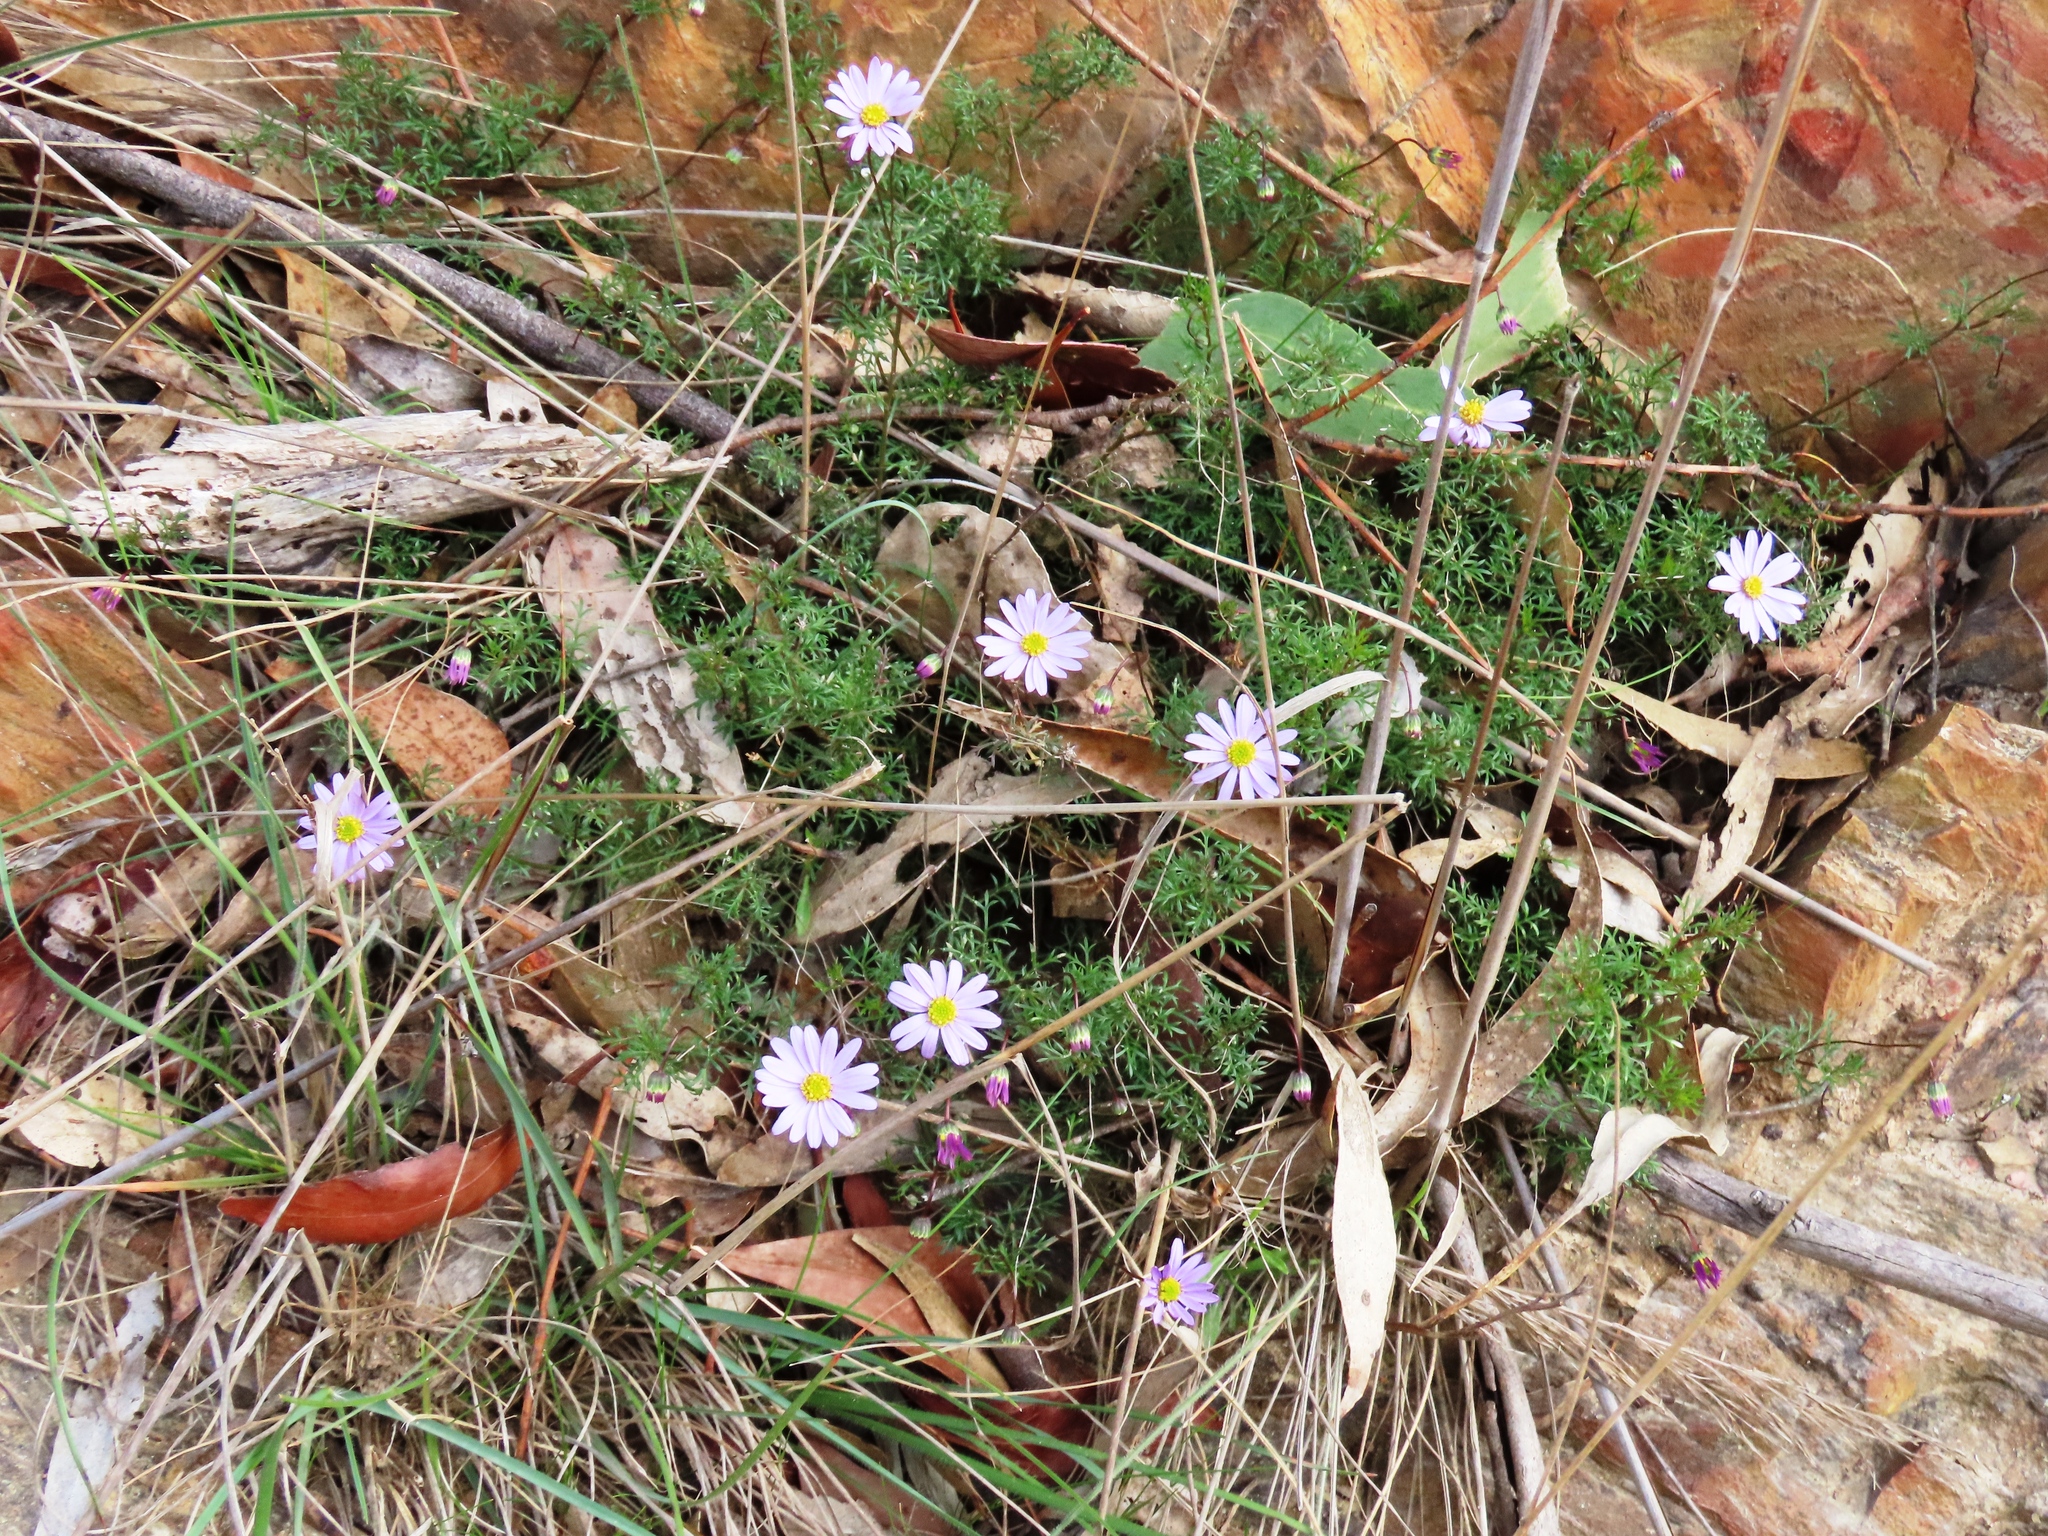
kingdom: Plantae
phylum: Tracheophyta
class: Magnoliopsida
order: Asterales
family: Asteraceae
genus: Brachyscome
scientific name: Brachyscome multifida
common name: Cut-leaf daisy
